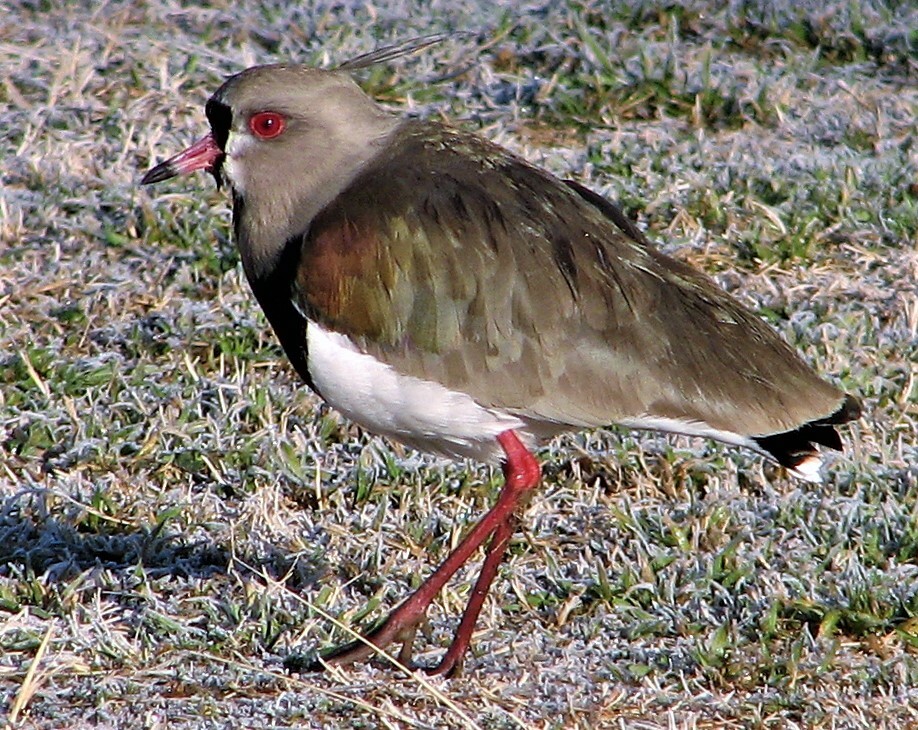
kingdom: Animalia
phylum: Chordata
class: Aves
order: Charadriiformes
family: Charadriidae
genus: Vanellus
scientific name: Vanellus chilensis
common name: Southern lapwing
